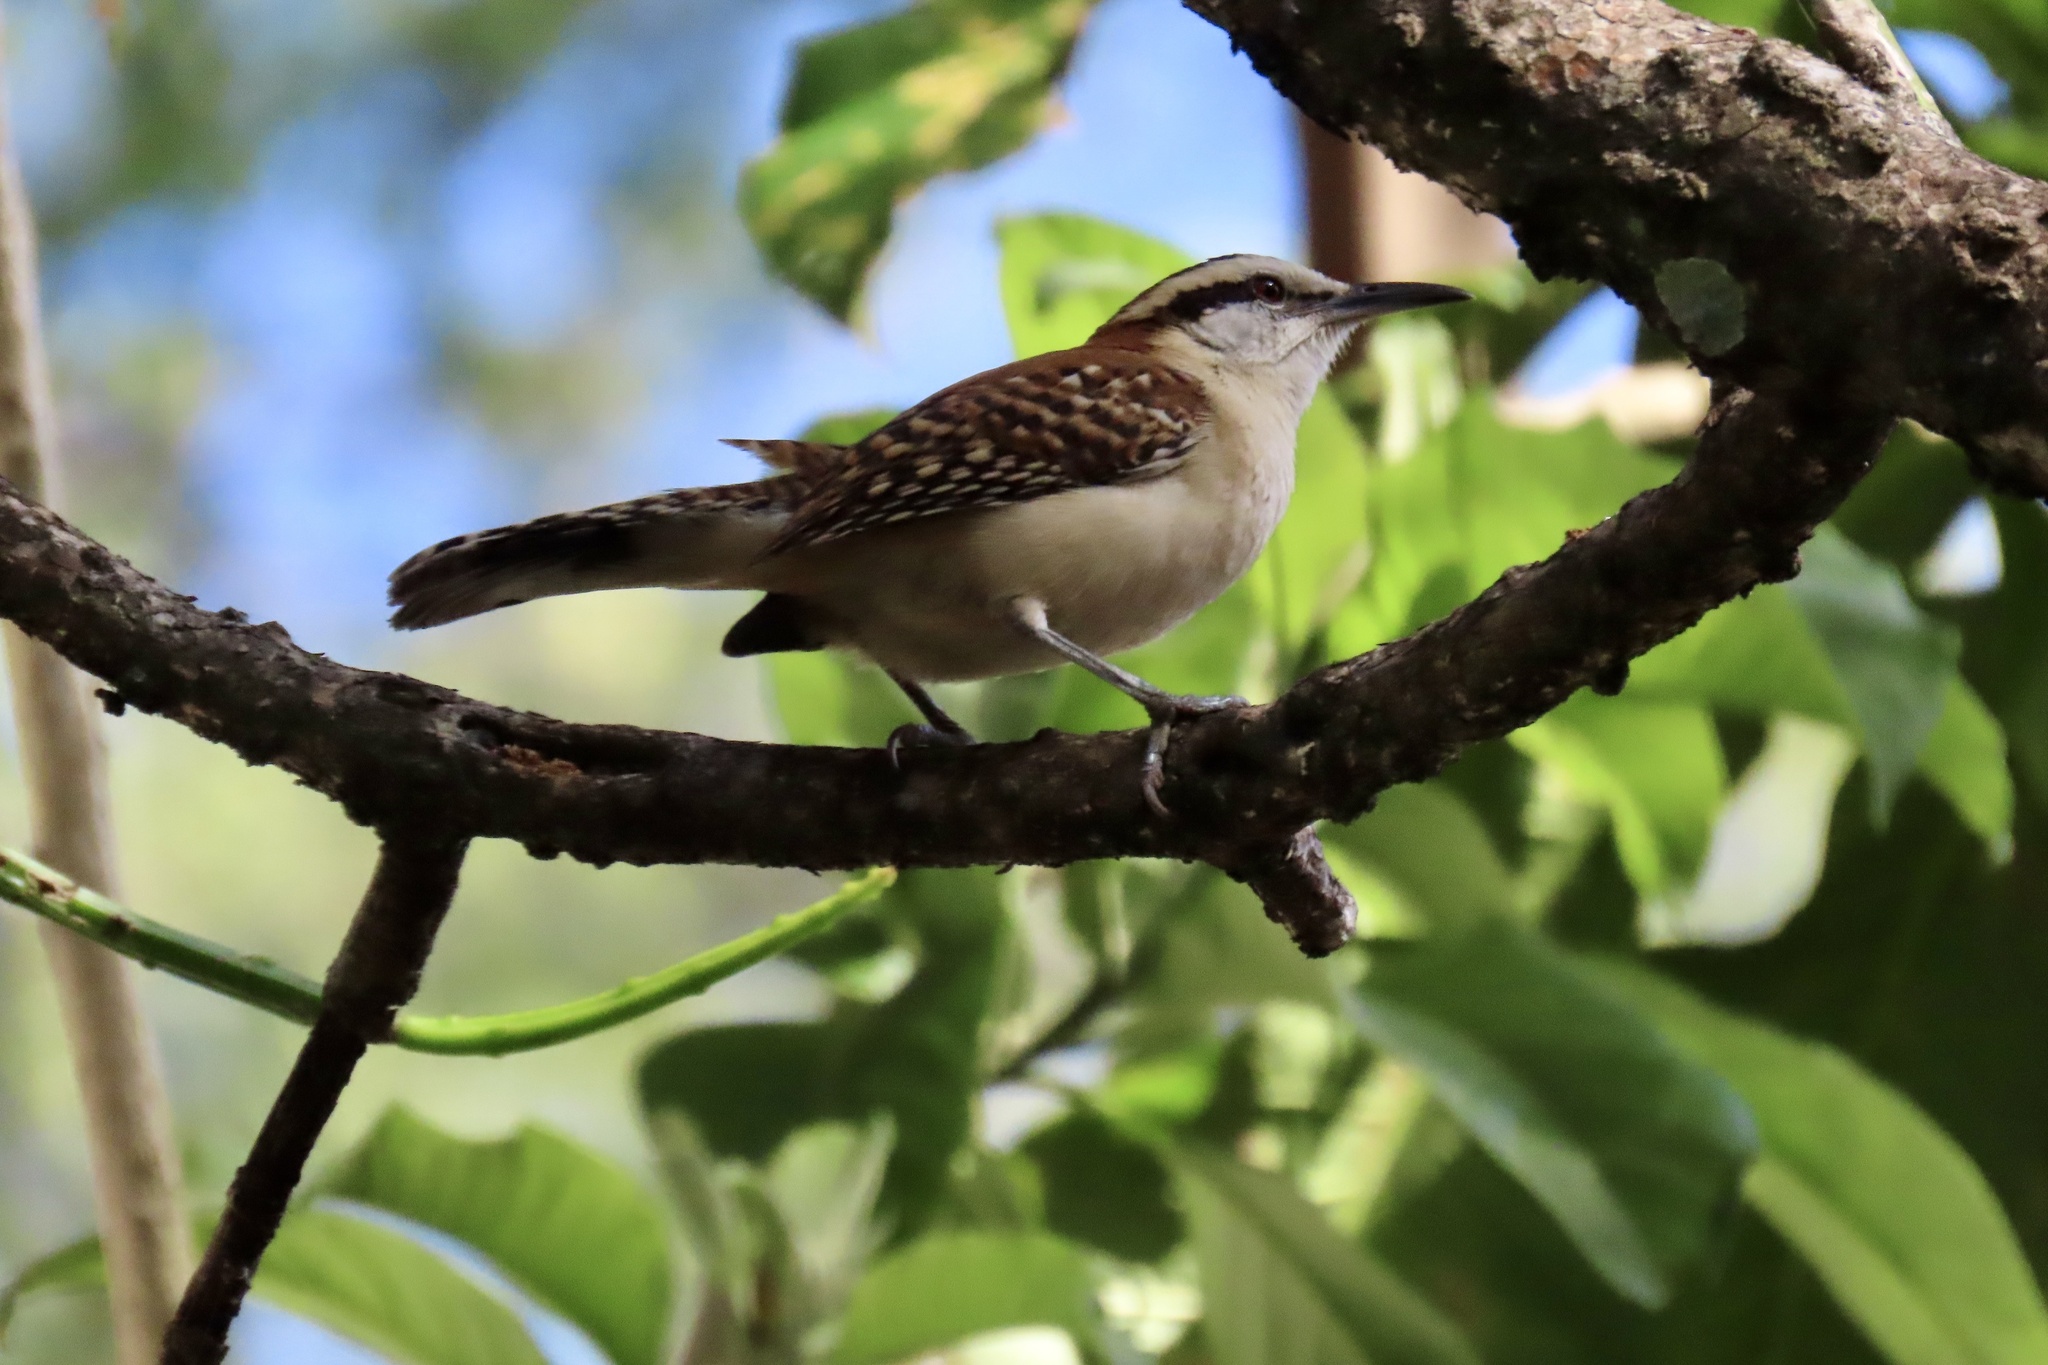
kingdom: Animalia
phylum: Chordata
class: Aves
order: Passeriformes
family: Troglodytidae
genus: Campylorhynchus
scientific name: Campylorhynchus rufinucha
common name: Rufous-naped wren
